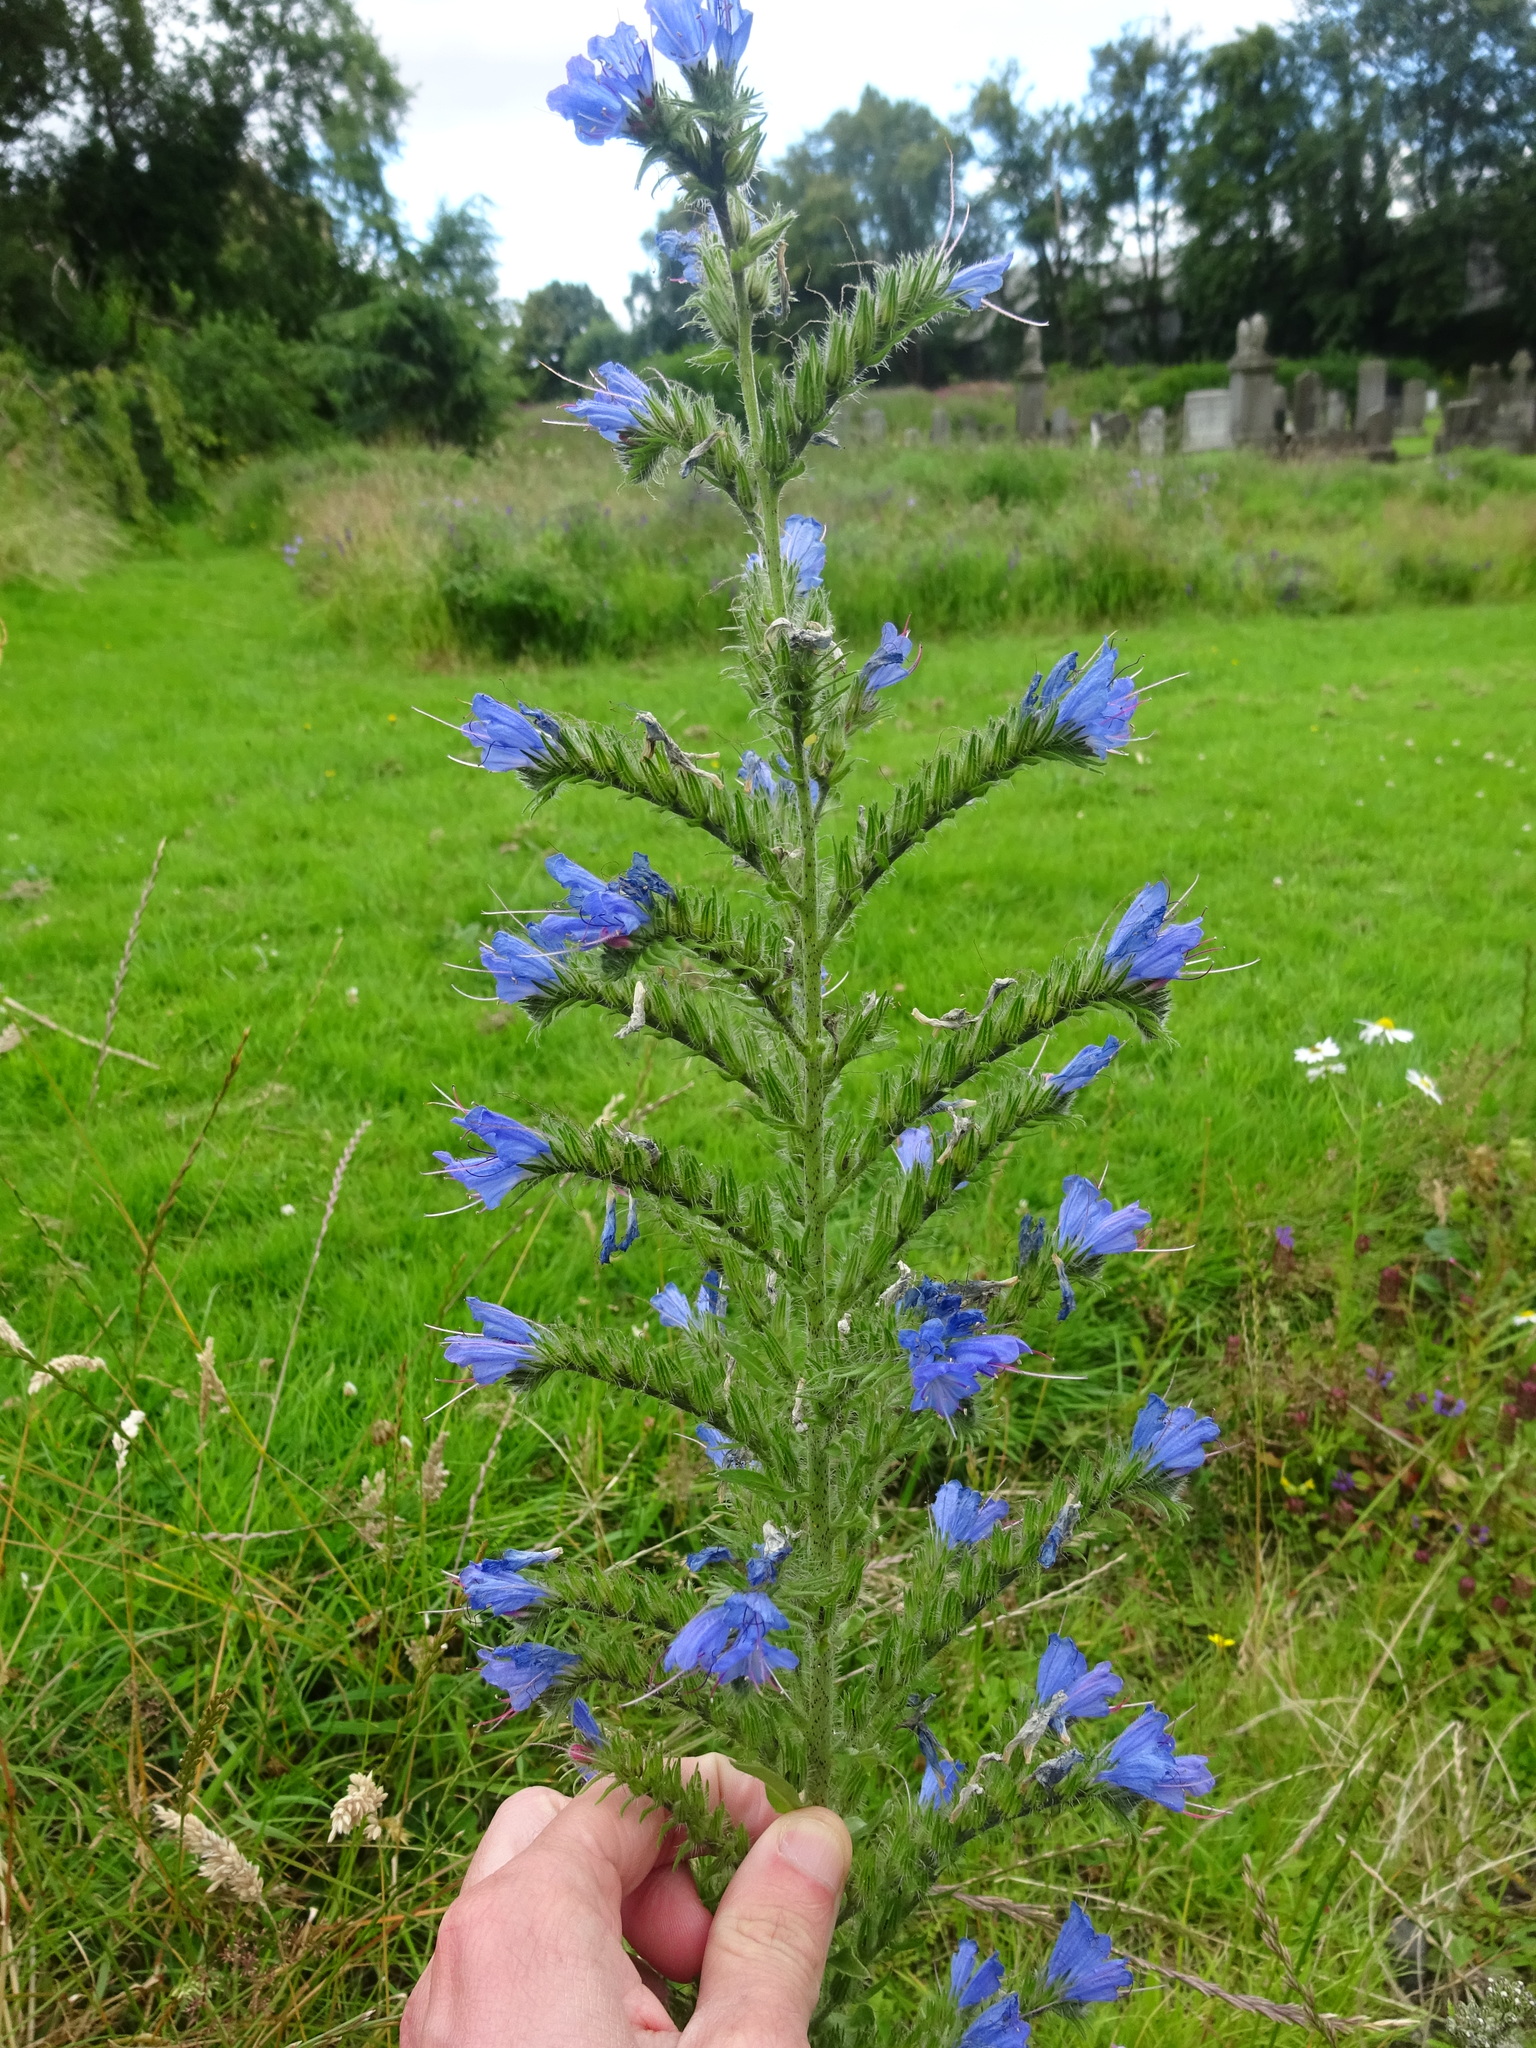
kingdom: Plantae
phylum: Tracheophyta
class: Magnoliopsida
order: Boraginales
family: Boraginaceae
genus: Echium
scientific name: Echium vulgare
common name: Common viper's bugloss
